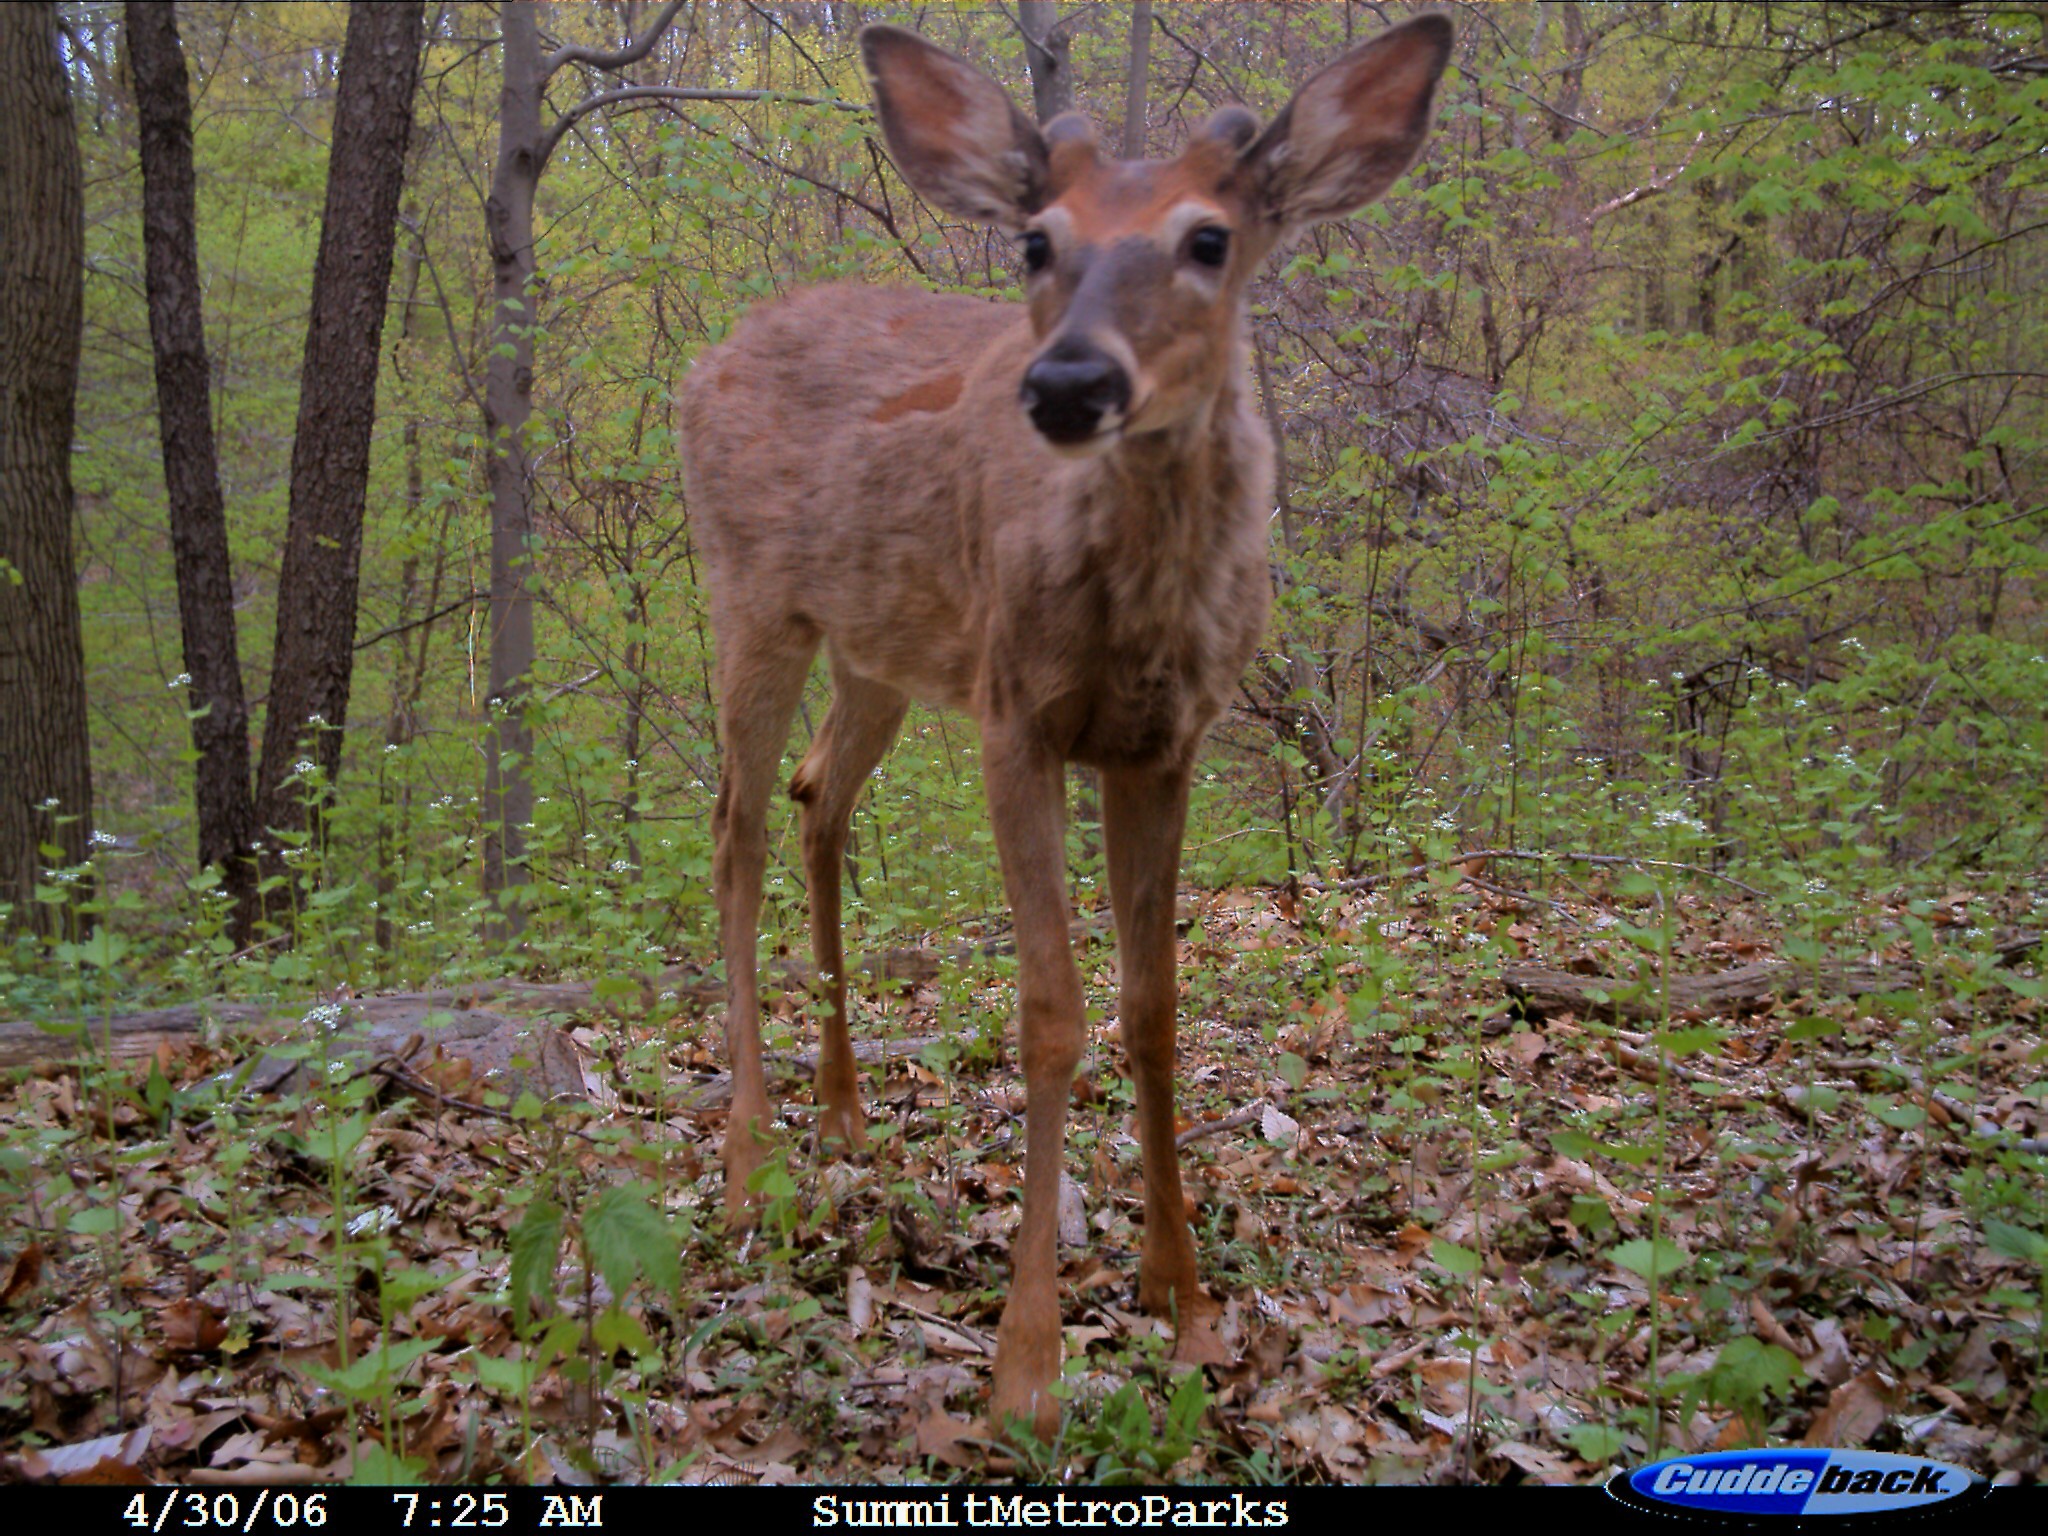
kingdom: Animalia
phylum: Chordata
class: Mammalia
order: Artiodactyla
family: Cervidae
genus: Odocoileus
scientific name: Odocoileus virginianus
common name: White-tailed deer
